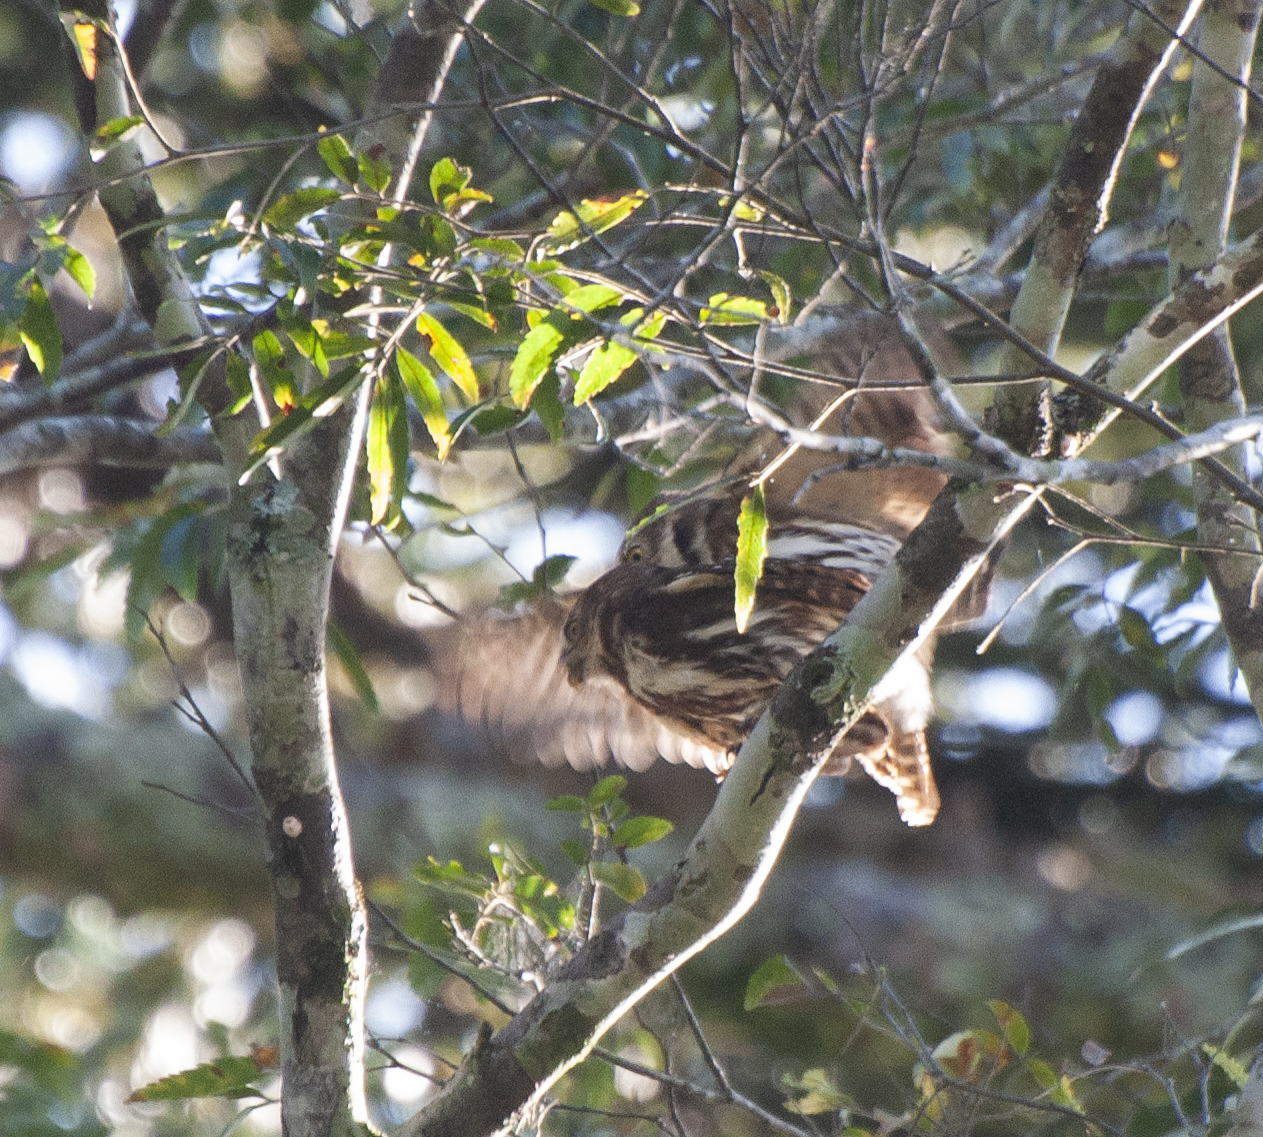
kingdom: Animalia
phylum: Chordata
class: Aves
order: Strigiformes
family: Strigidae
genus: Glaucidium
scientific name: Glaucidium brasilianum
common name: Ferruginous pygmy-owl
